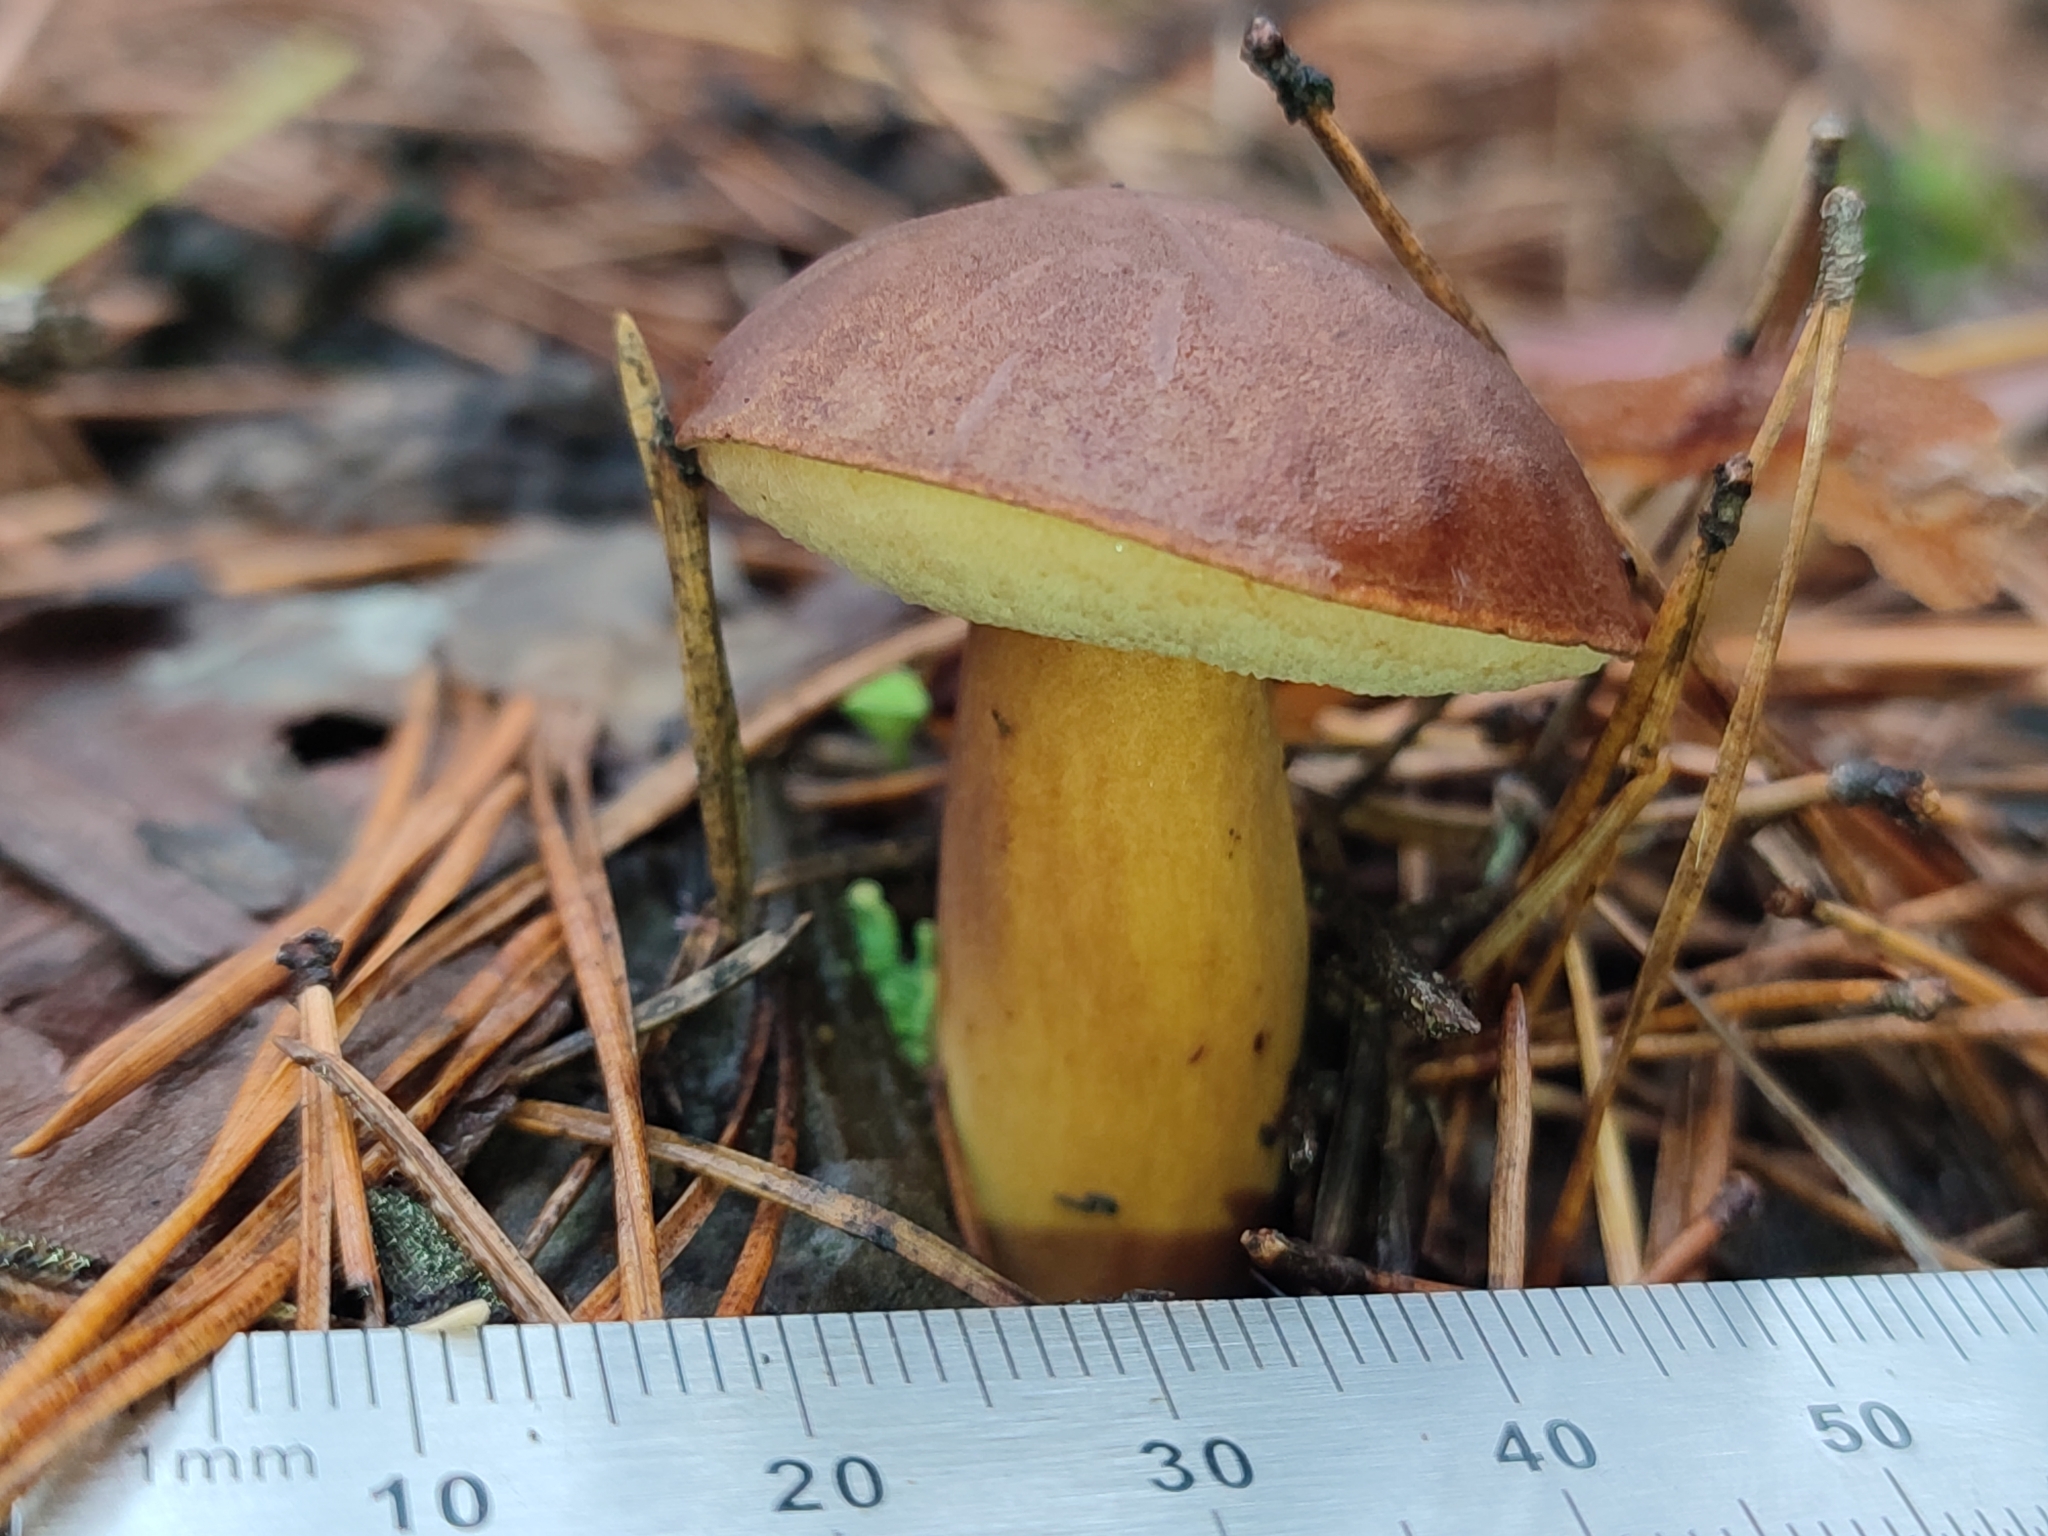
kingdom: Fungi
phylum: Basidiomycota
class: Agaricomycetes
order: Boletales
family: Boletaceae
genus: Imleria
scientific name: Imleria badia
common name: Bay bolete
